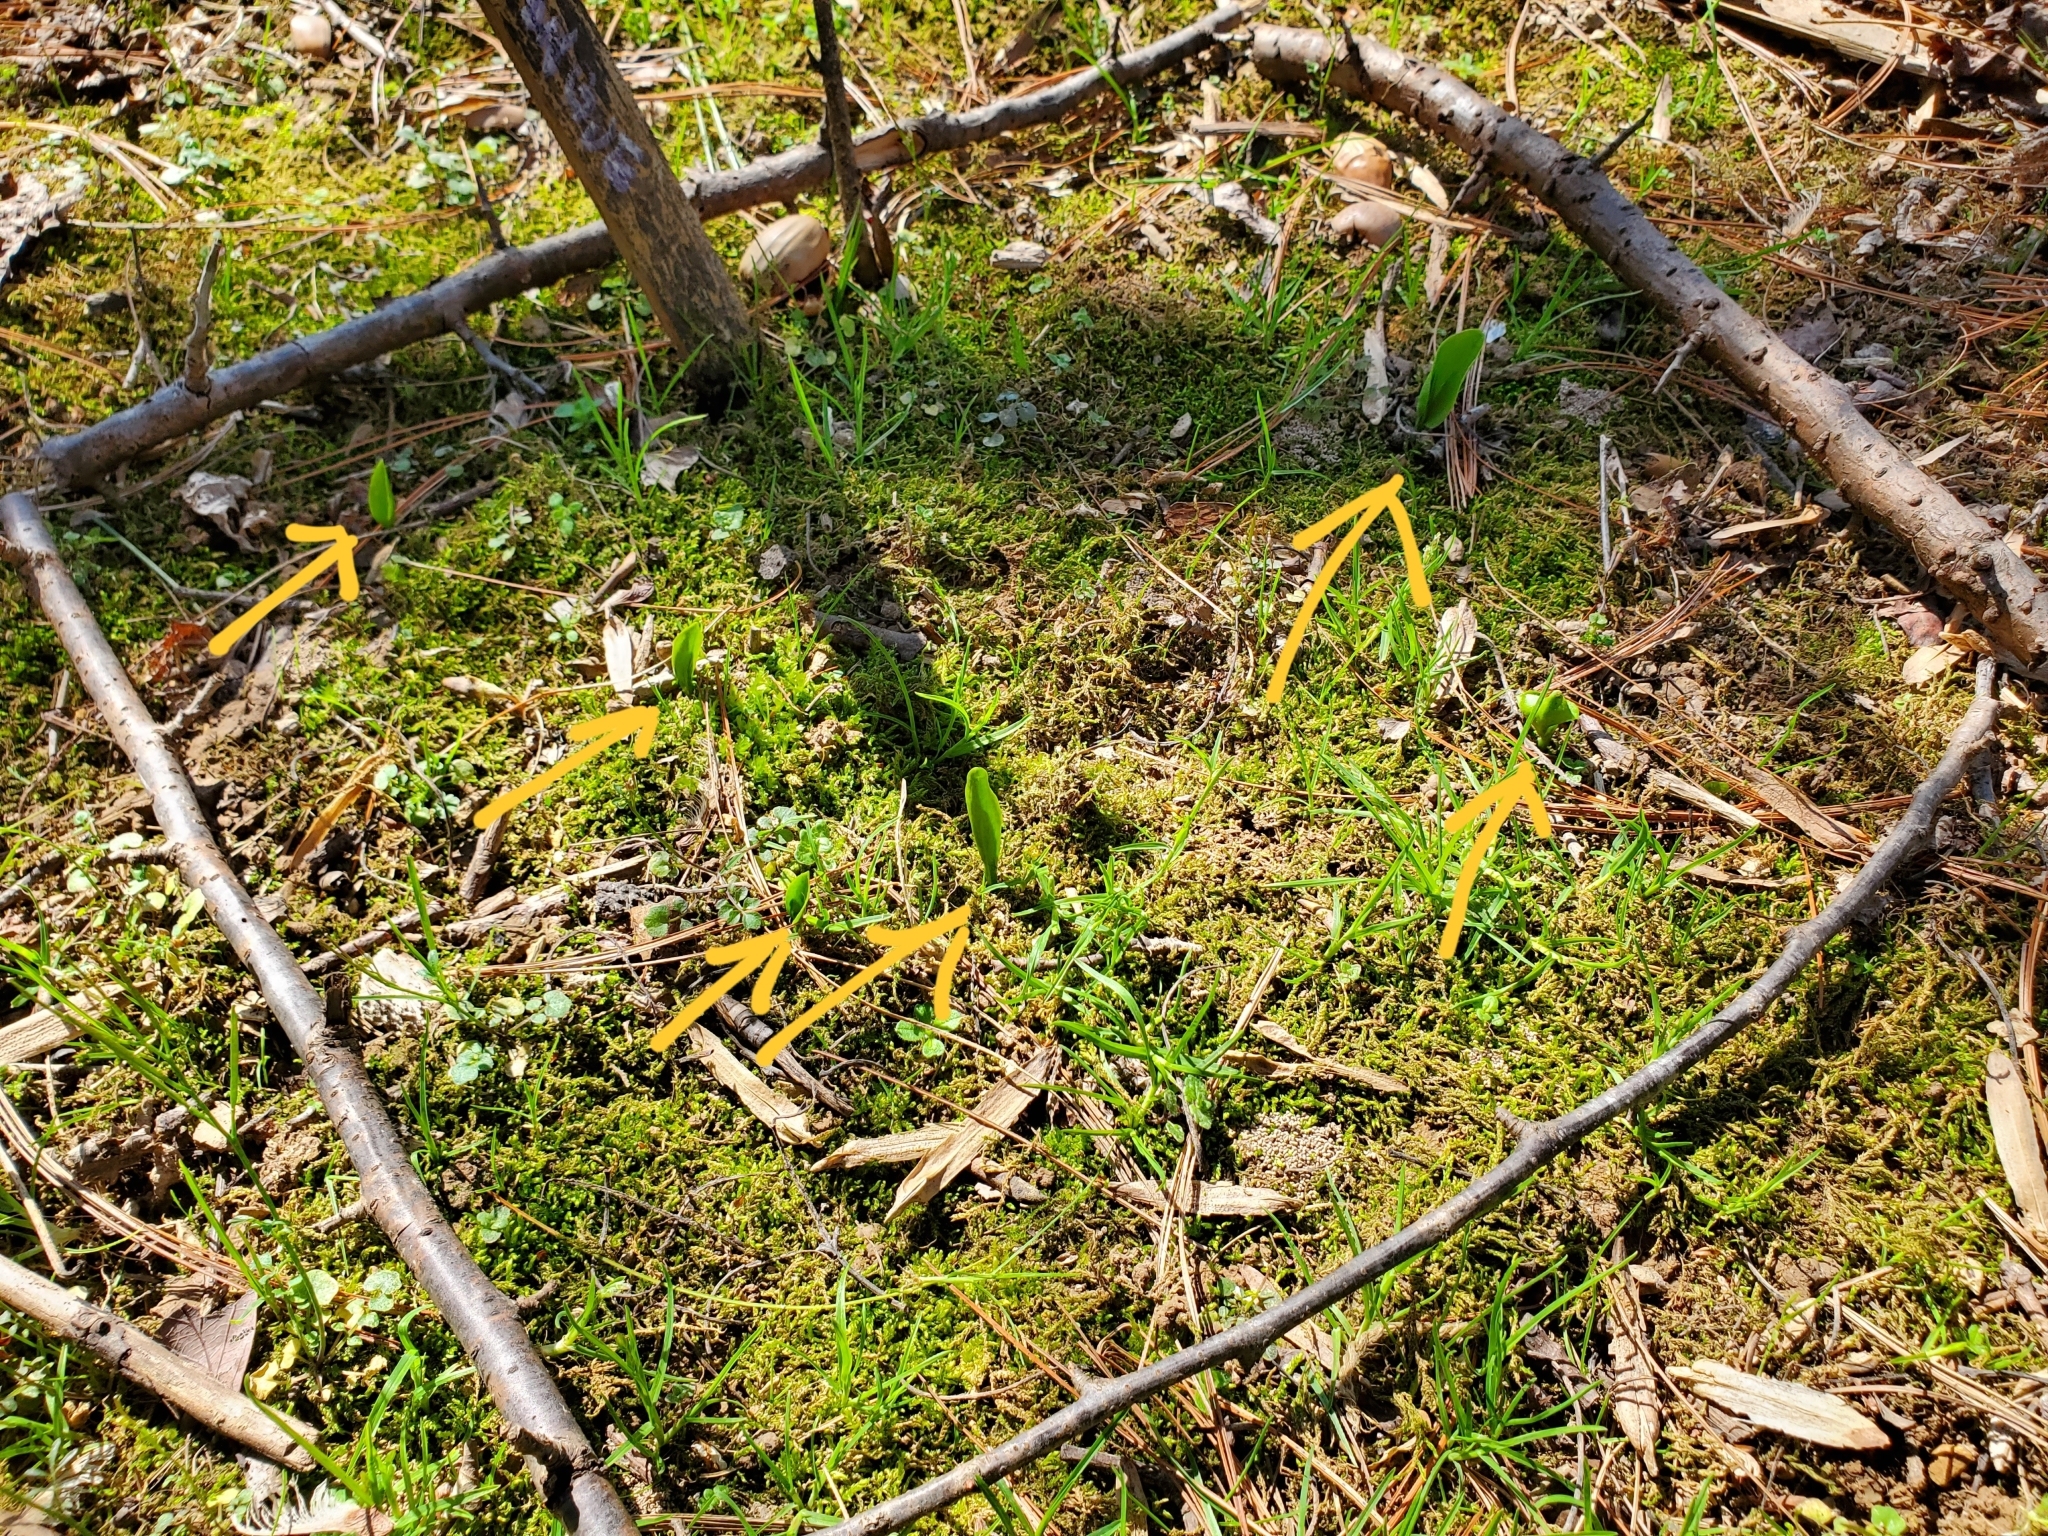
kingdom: Plantae
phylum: Tracheophyta
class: Polypodiopsida
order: Ophioglossales
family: Ophioglossaceae
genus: Ophioglossum
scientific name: Ophioglossum vulgatum
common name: Adder's-tongue
